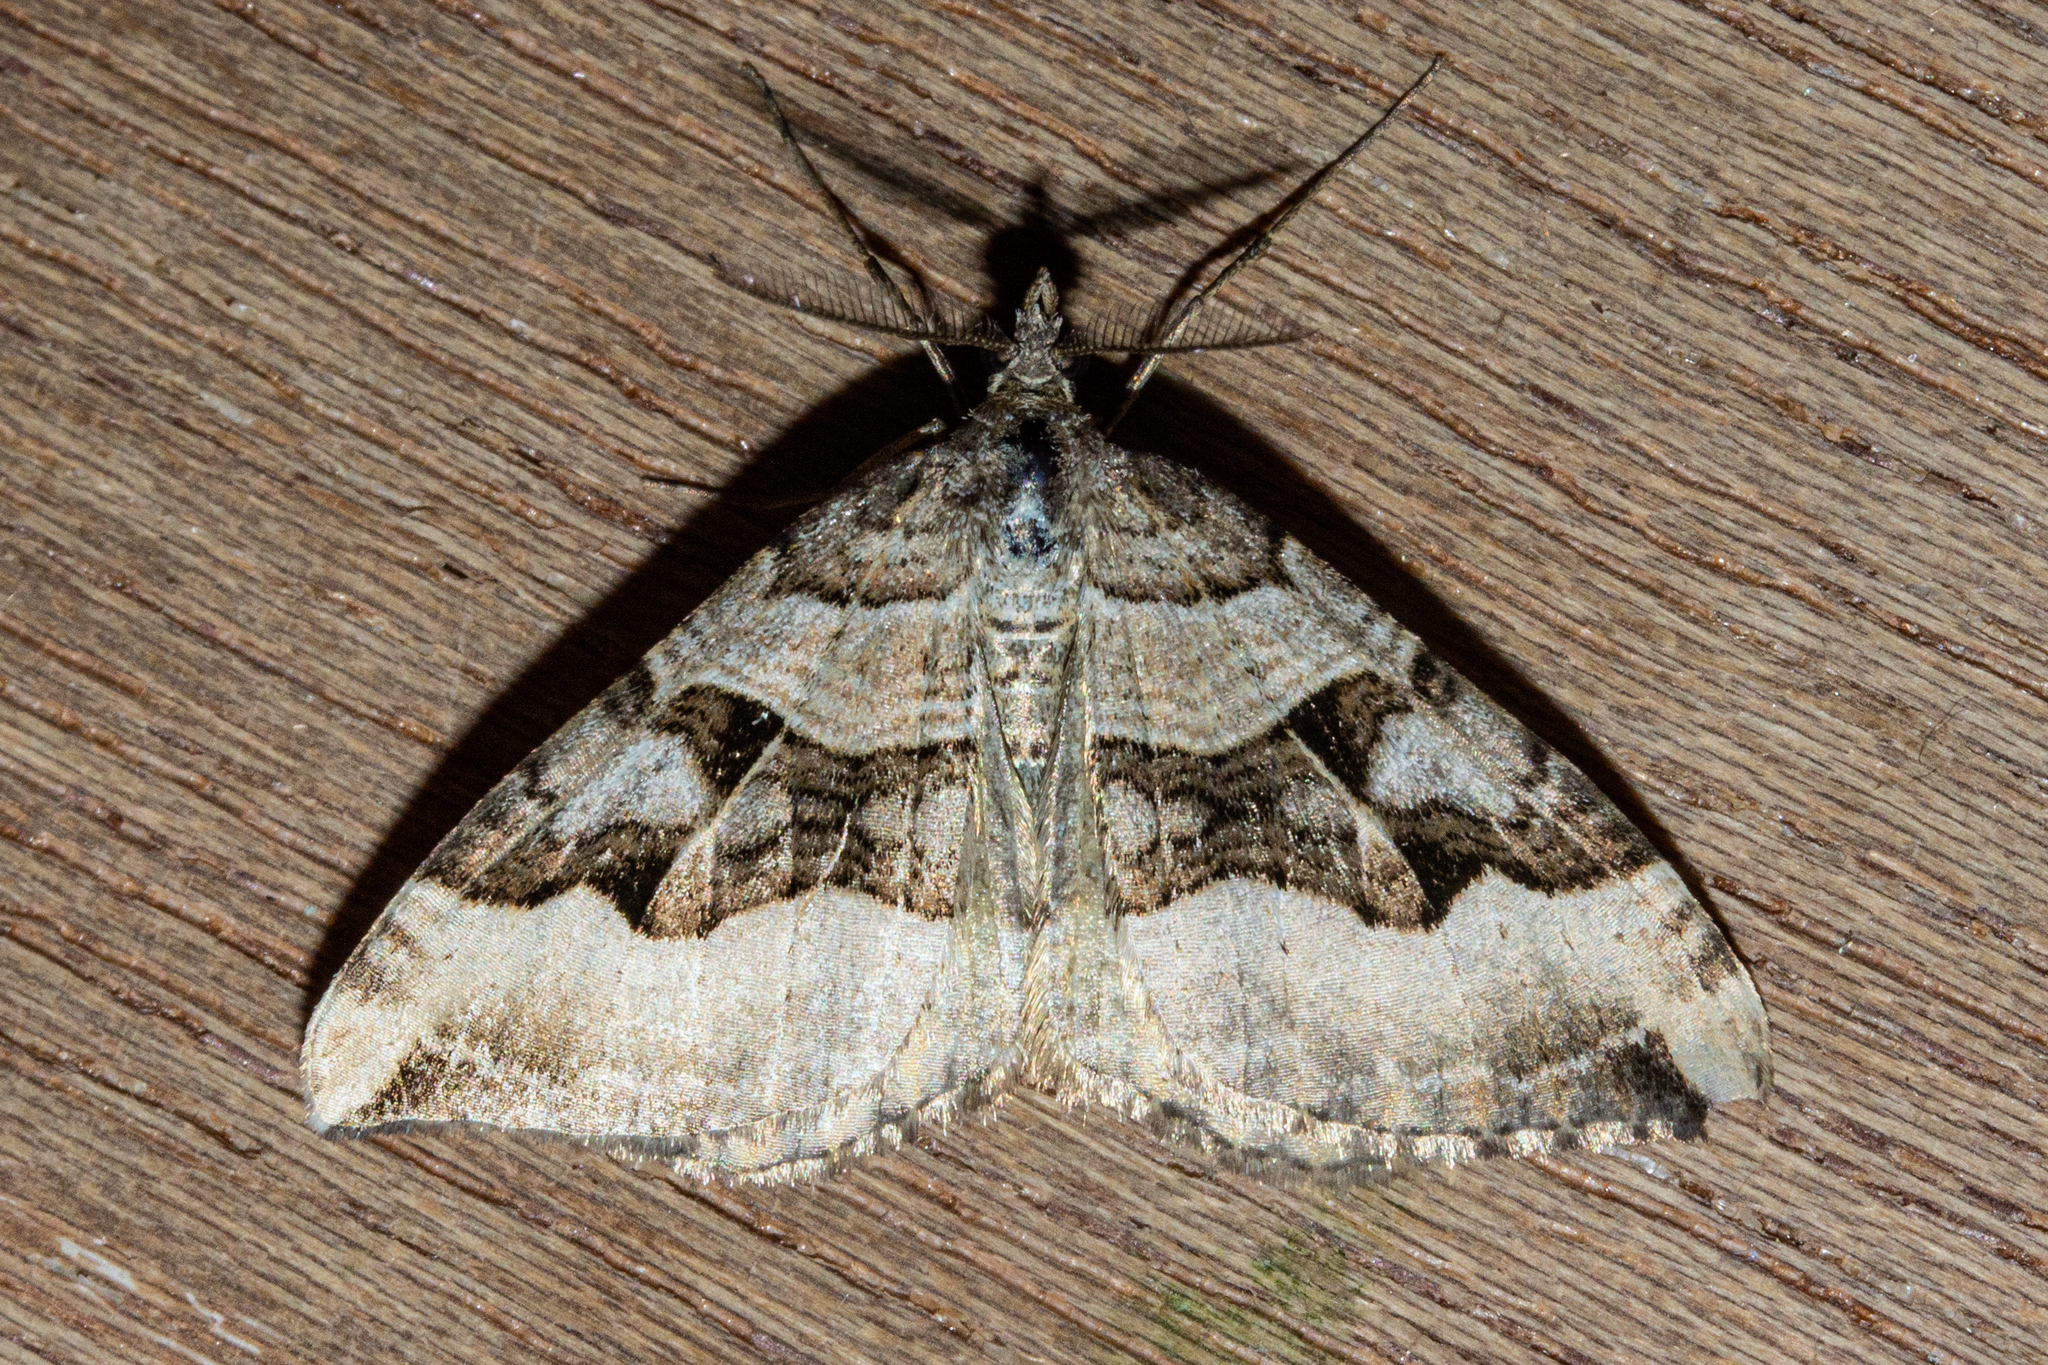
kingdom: Animalia
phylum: Arthropoda
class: Insecta
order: Lepidoptera
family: Geometridae
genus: Xanthorhoe
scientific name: Xanthorhoe semifissata
